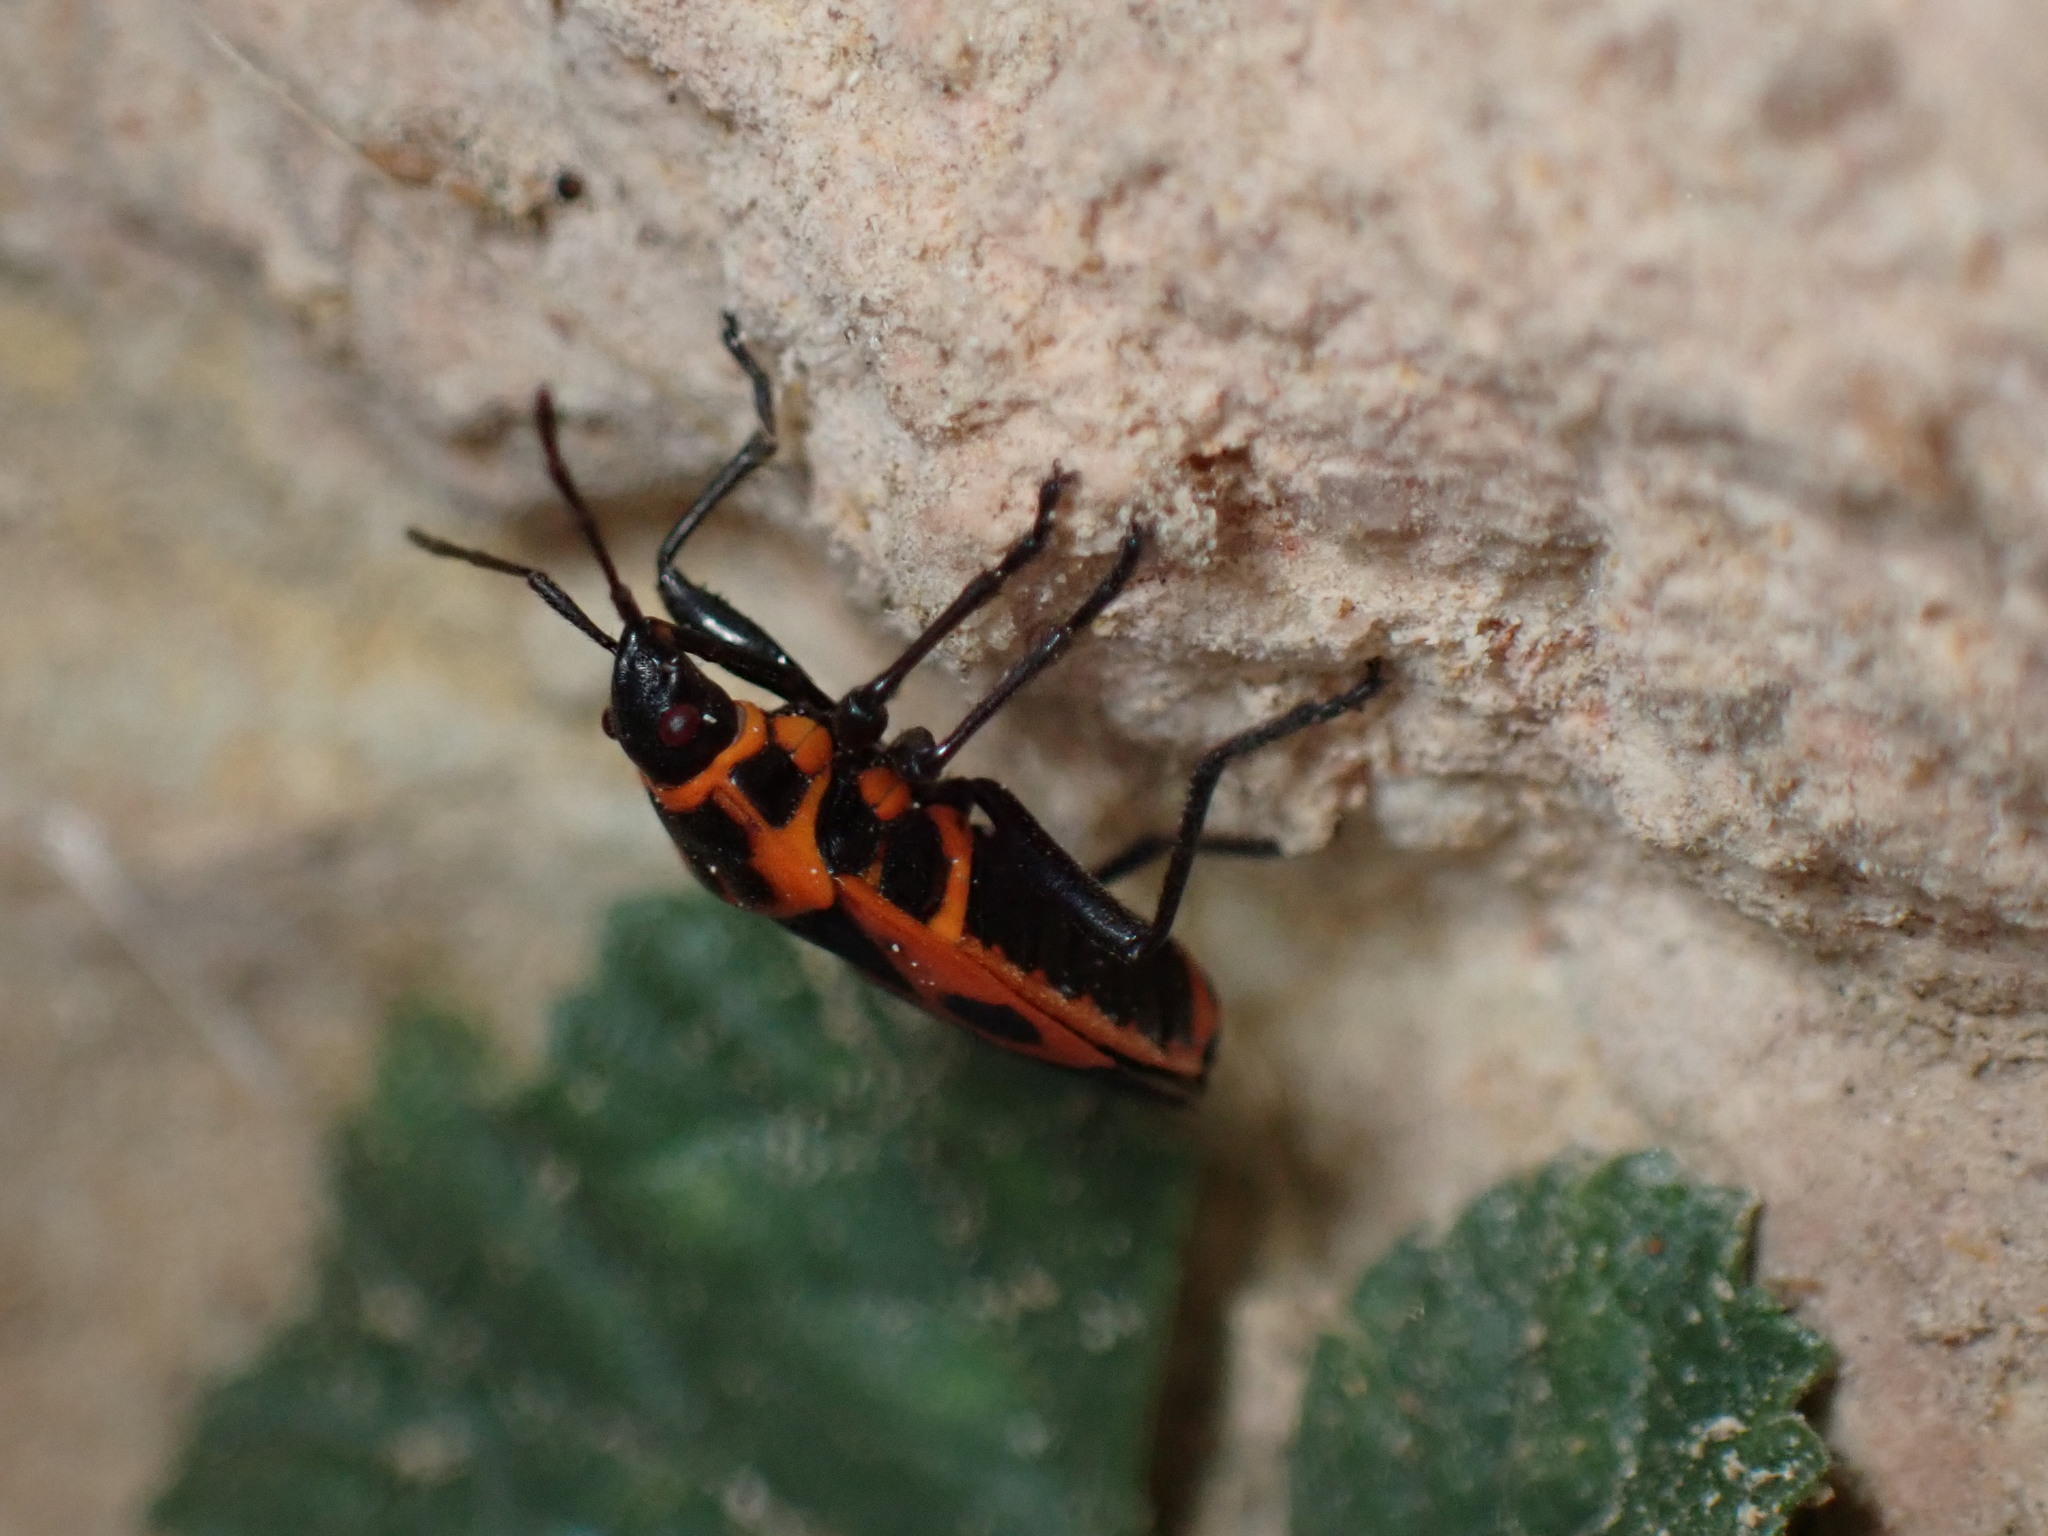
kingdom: Animalia
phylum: Arthropoda
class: Insecta
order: Hemiptera
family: Pyrrhocoridae
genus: Pyrrhocoris
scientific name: Pyrrhocoris apterus
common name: Firebug
